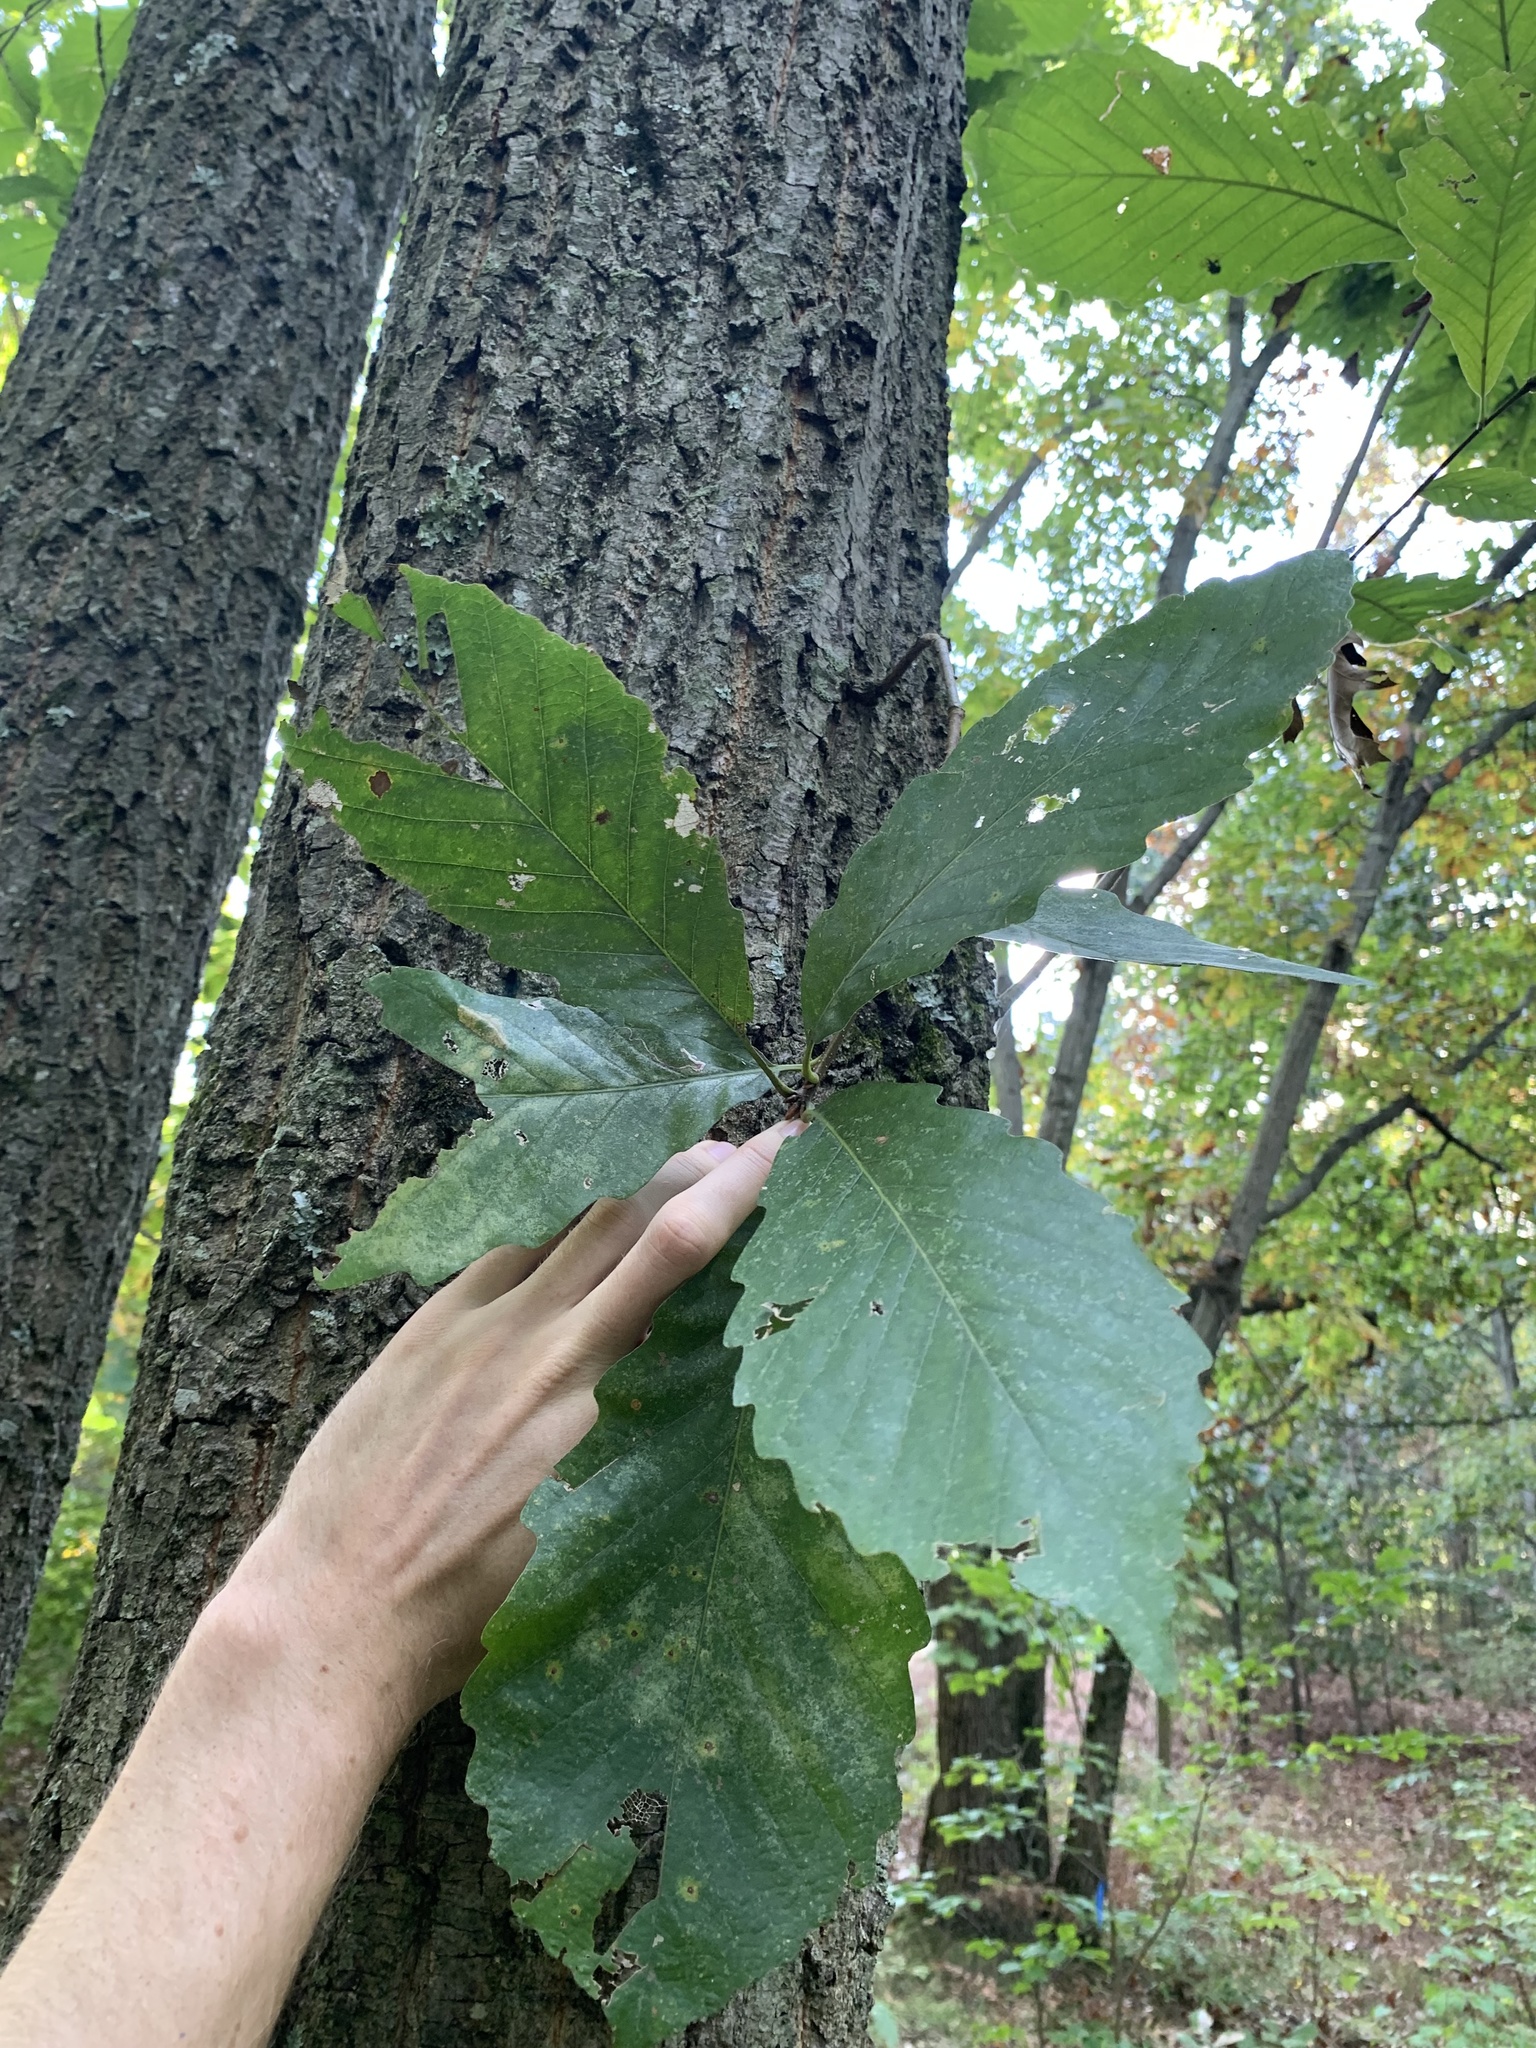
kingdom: Plantae
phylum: Tracheophyta
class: Magnoliopsida
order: Fagales
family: Fagaceae
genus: Quercus
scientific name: Quercus montana
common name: Chestnut oak
